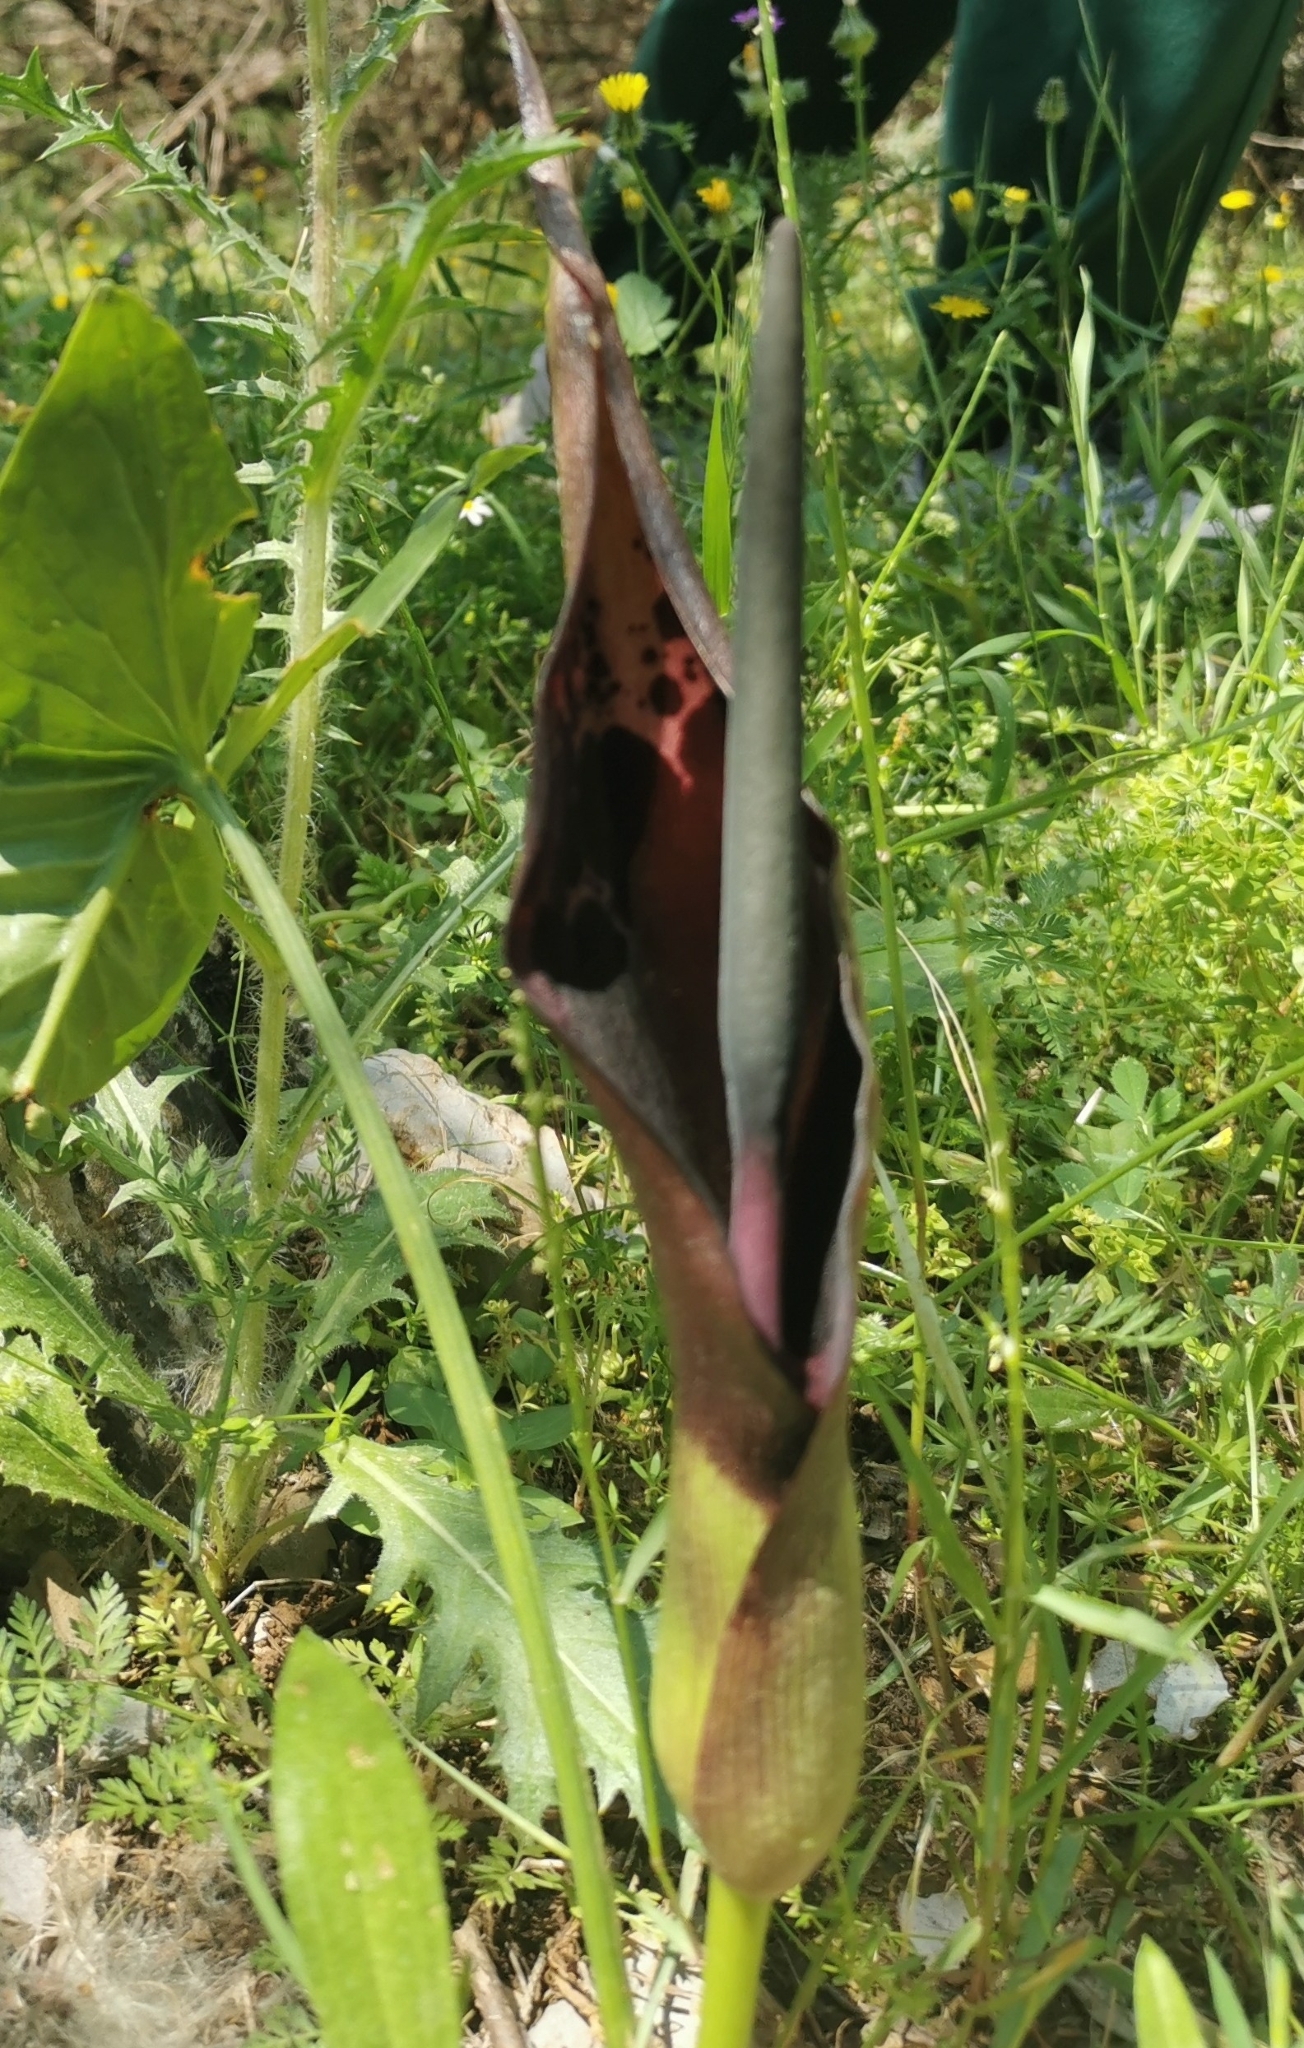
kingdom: Plantae
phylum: Tracheophyta
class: Liliopsida
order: Alismatales
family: Araceae
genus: Arum
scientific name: Arum dioscoridis
